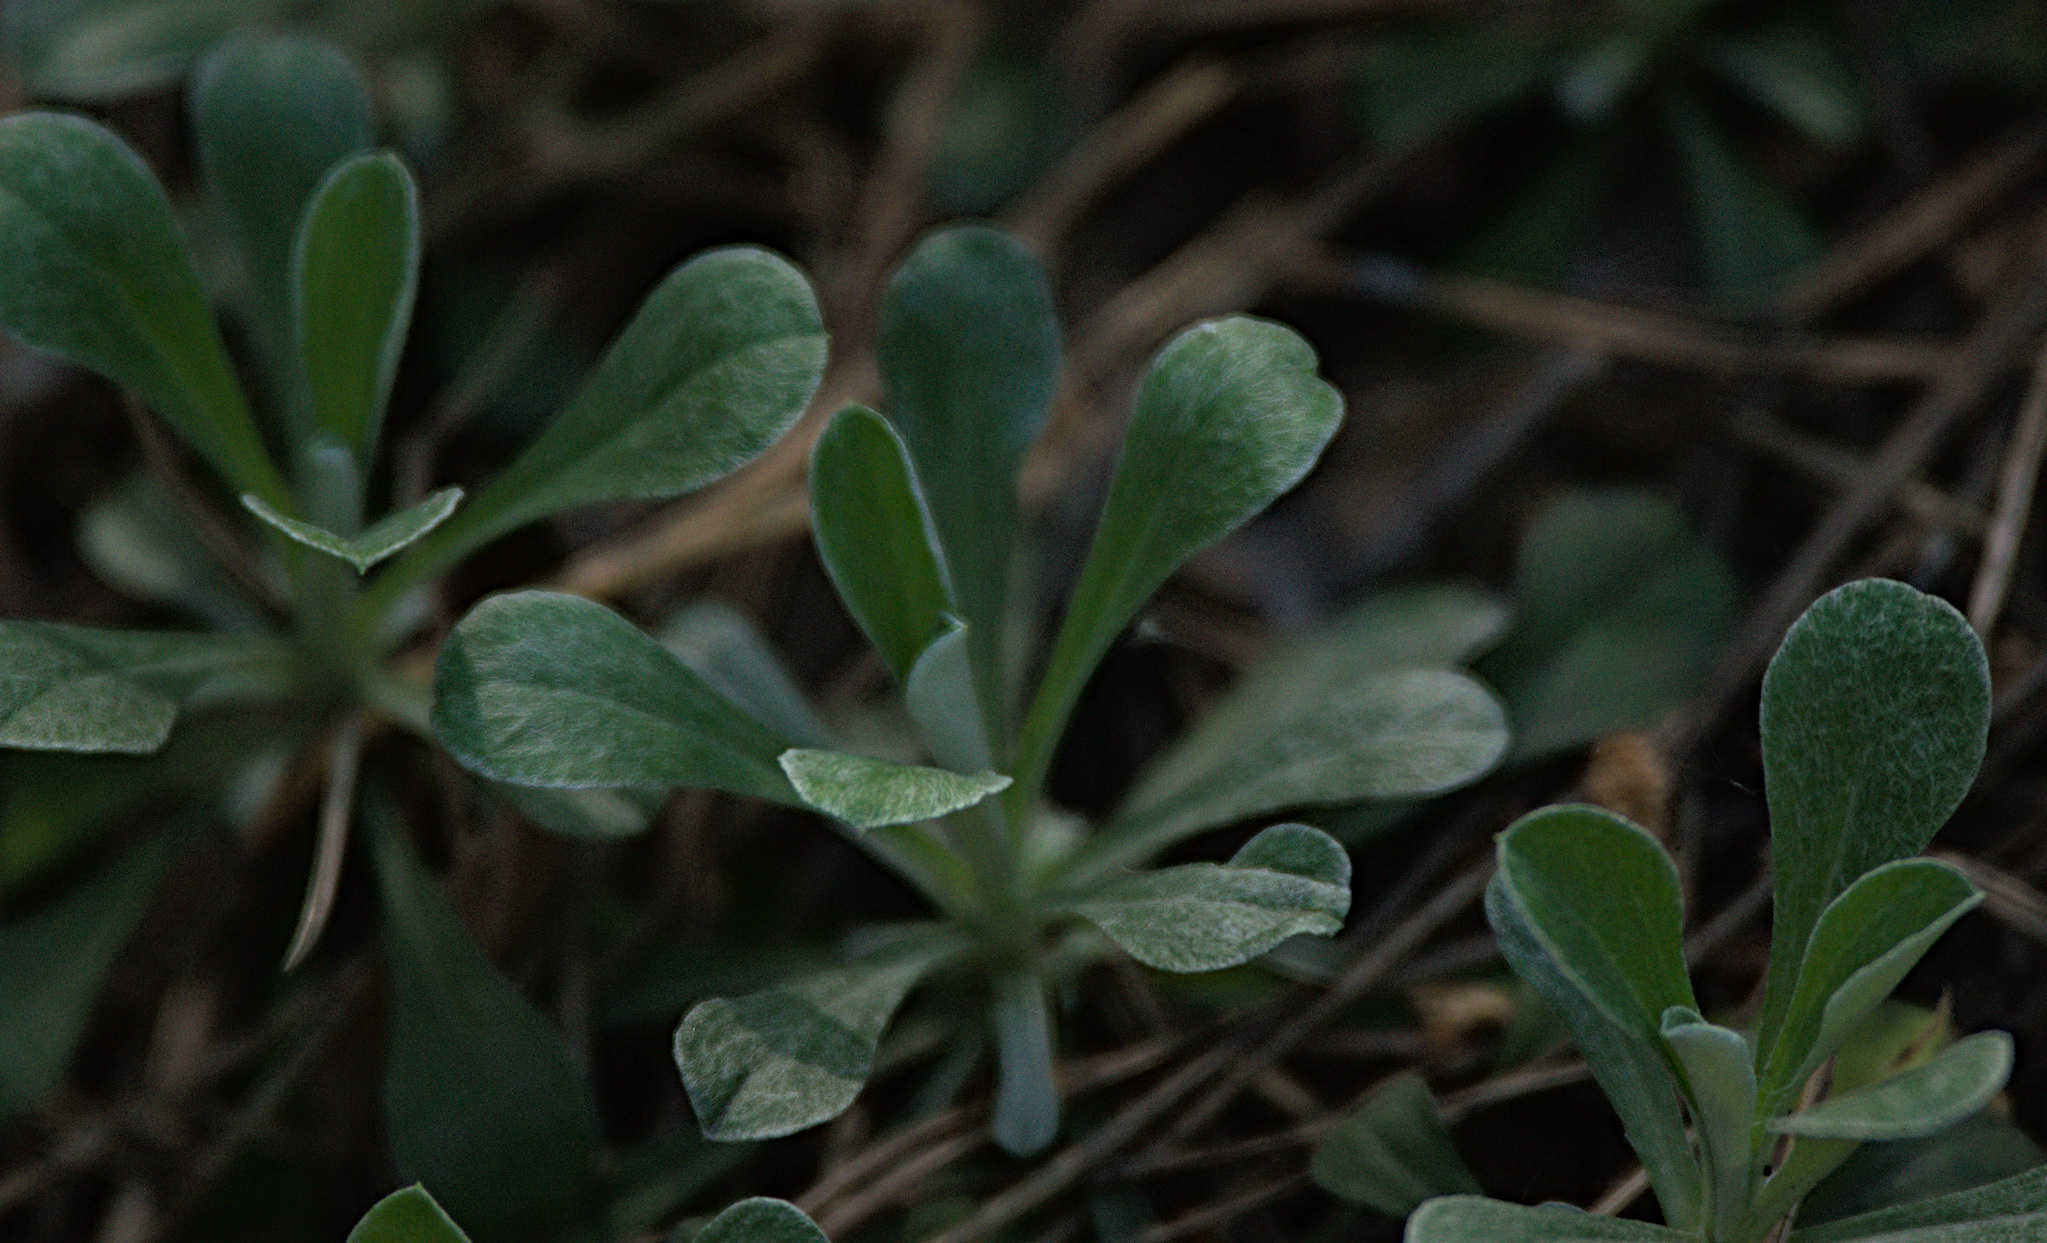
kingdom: Plantae
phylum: Tracheophyta
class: Magnoliopsida
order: Asterales
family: Asteraceae
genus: Antennaria
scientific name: Antennaria dioica
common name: Mountain everlasting
